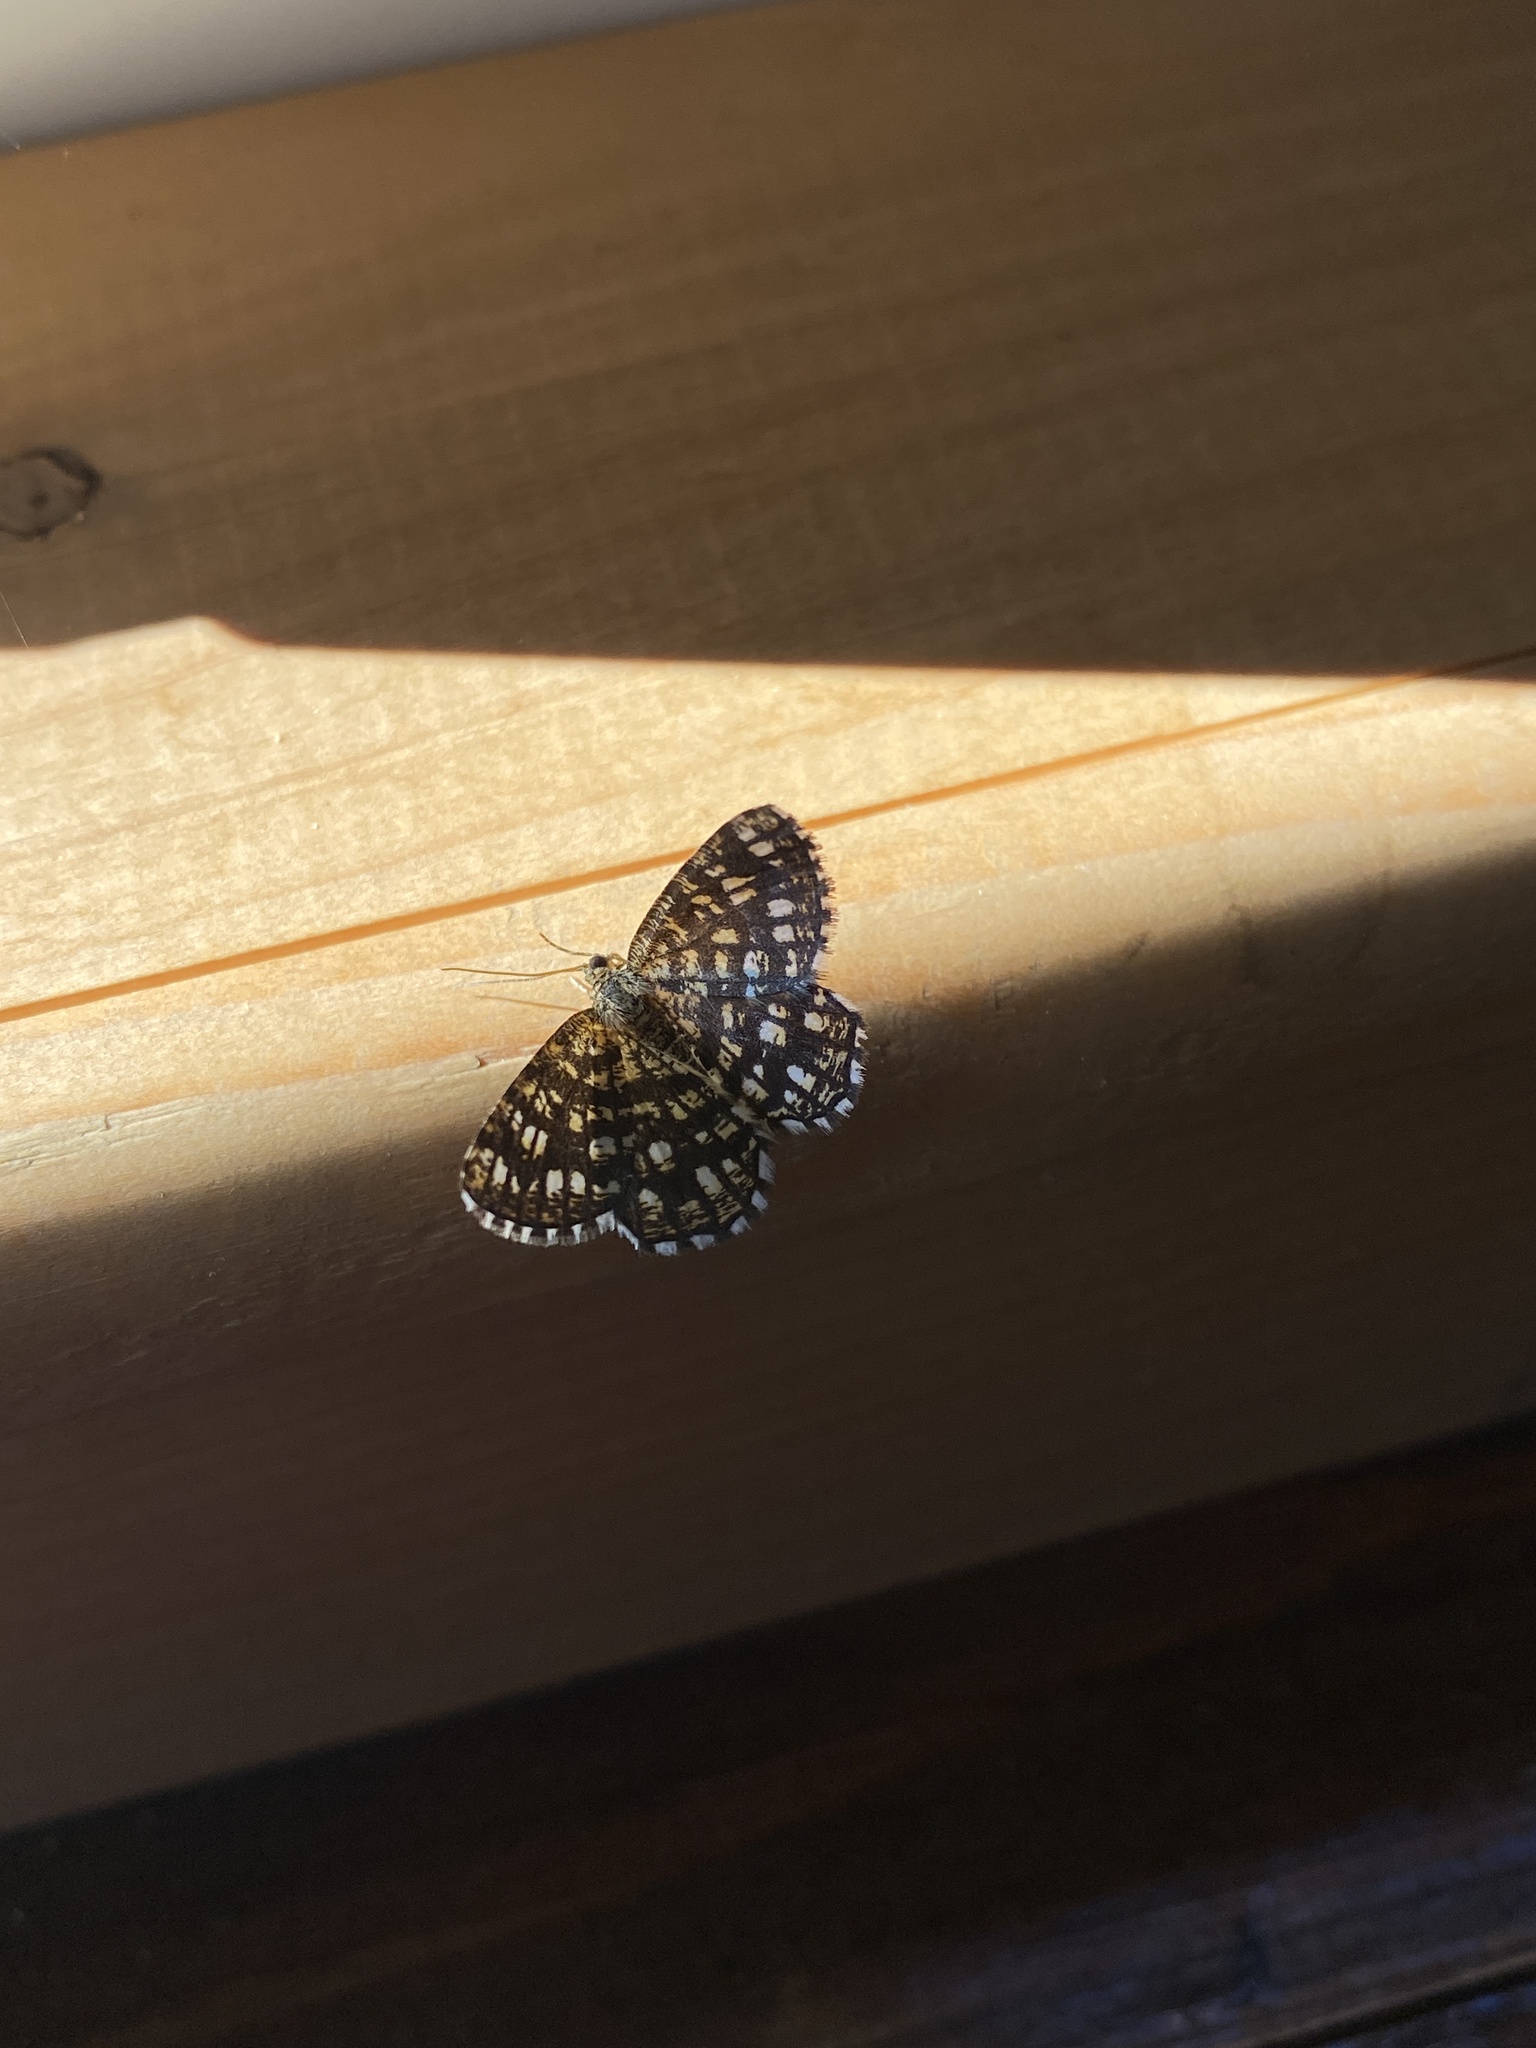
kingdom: Animalia
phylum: Arthropoda
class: Insecta
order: Lepidoptera
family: Geometridae
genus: Chiasmia
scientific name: Chiasmia clathrata
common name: Latticed heath
